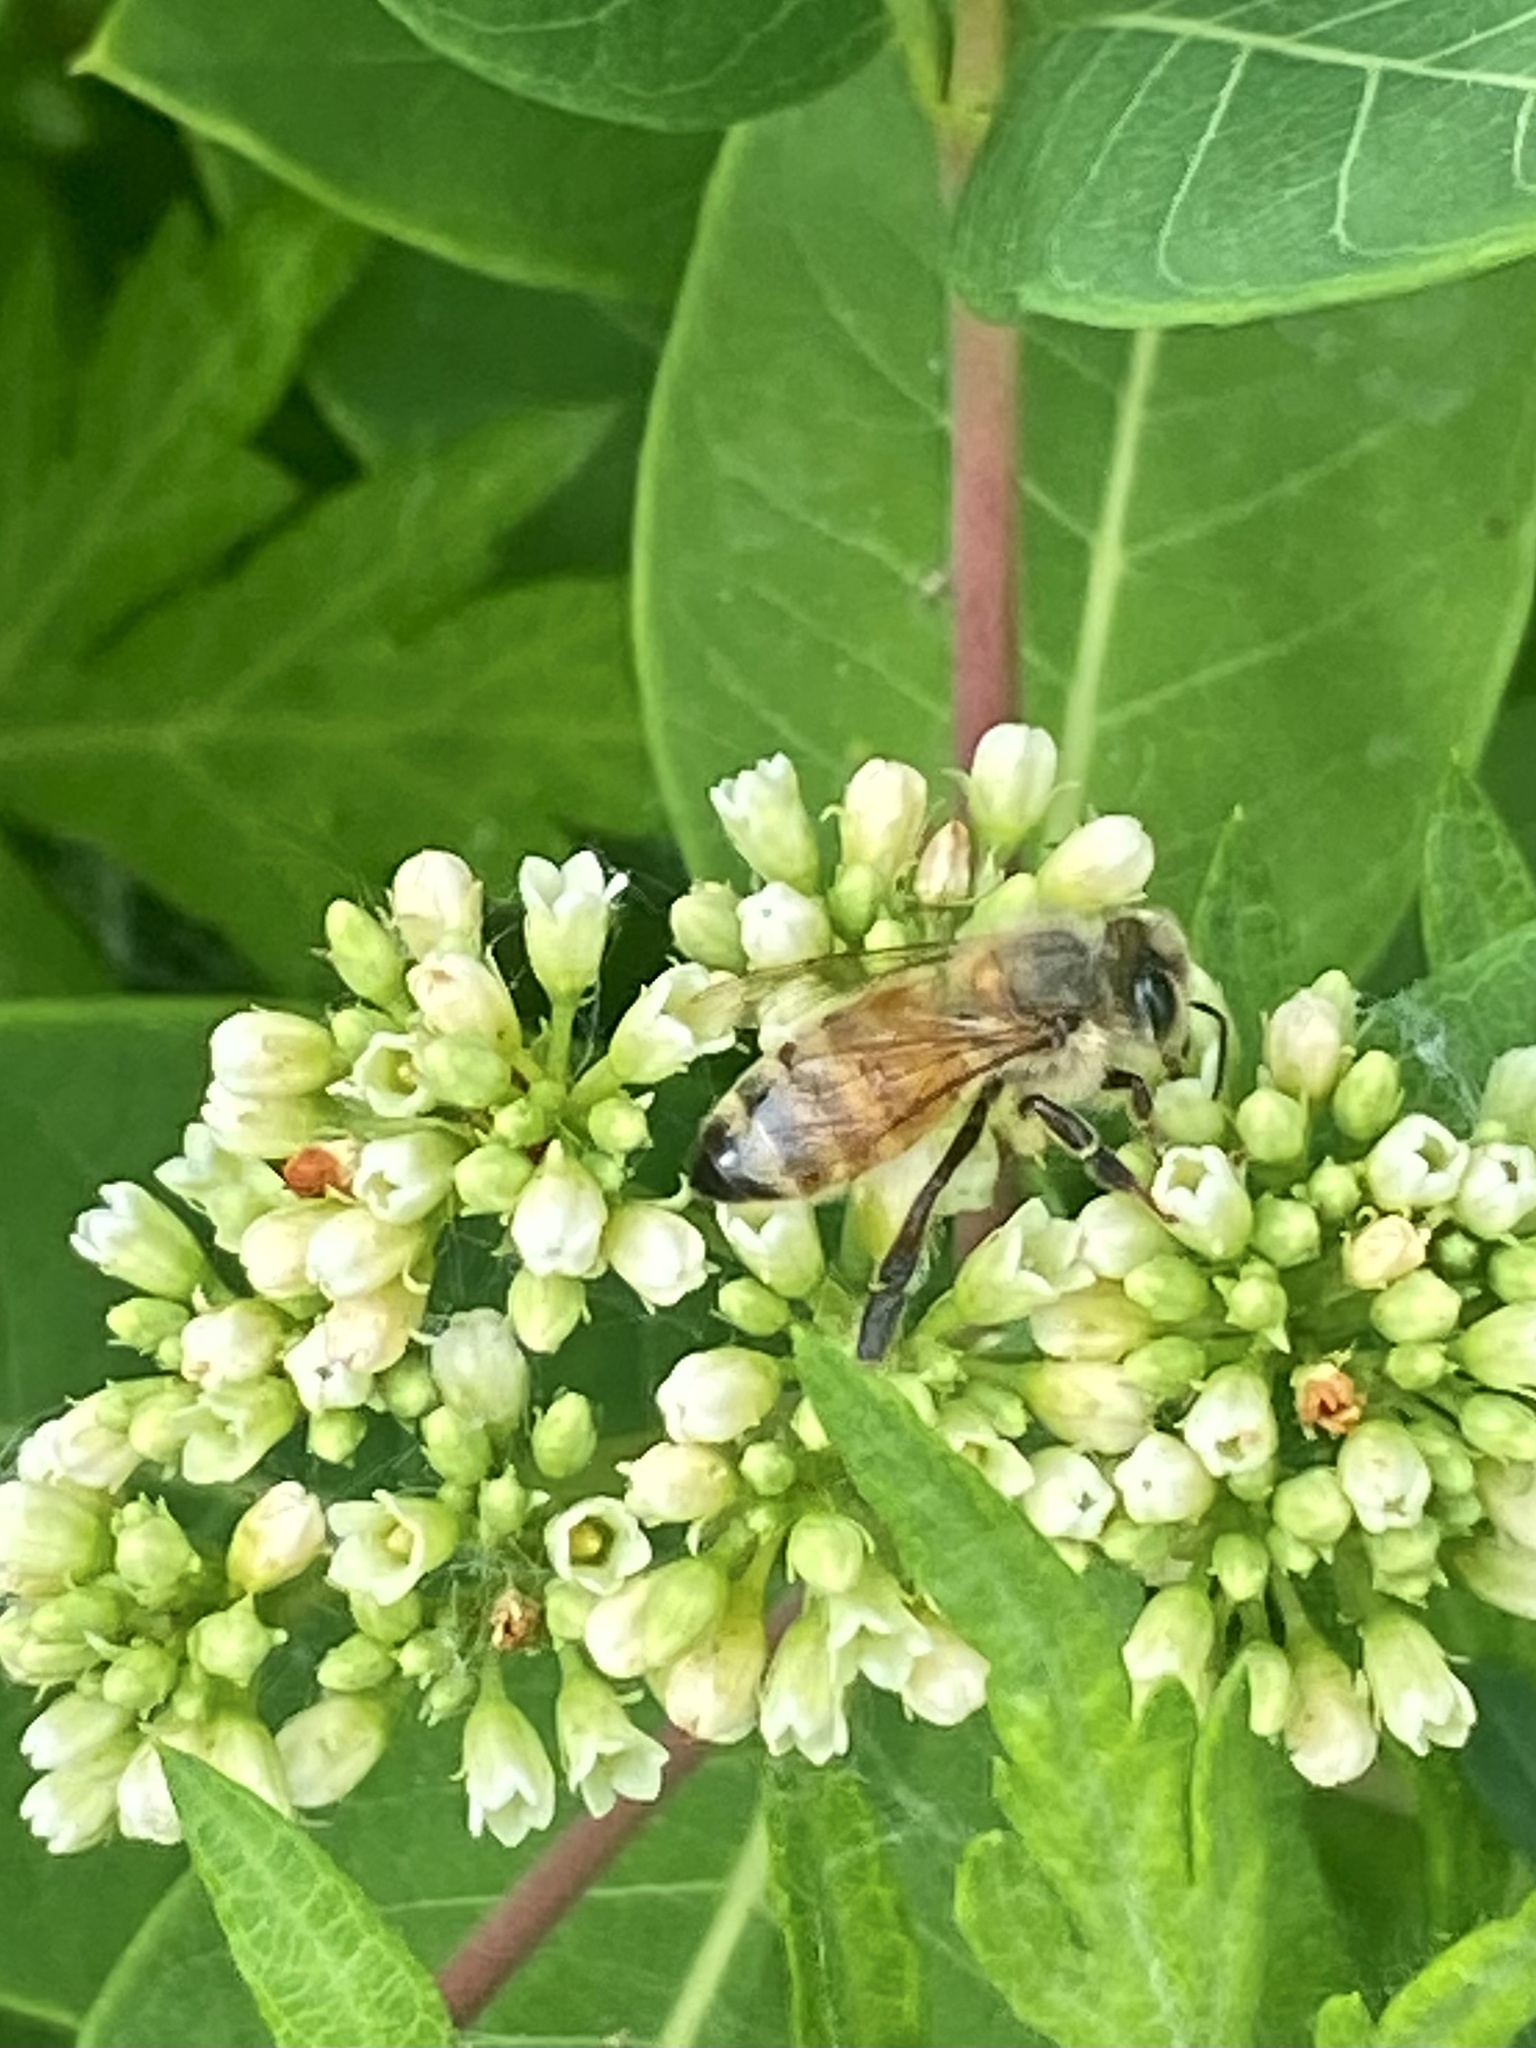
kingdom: Animalia
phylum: Arthropoda
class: Insecta
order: Hymenoptera
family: Apidae
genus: Apis
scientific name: Apis mellifera
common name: Honey bee
